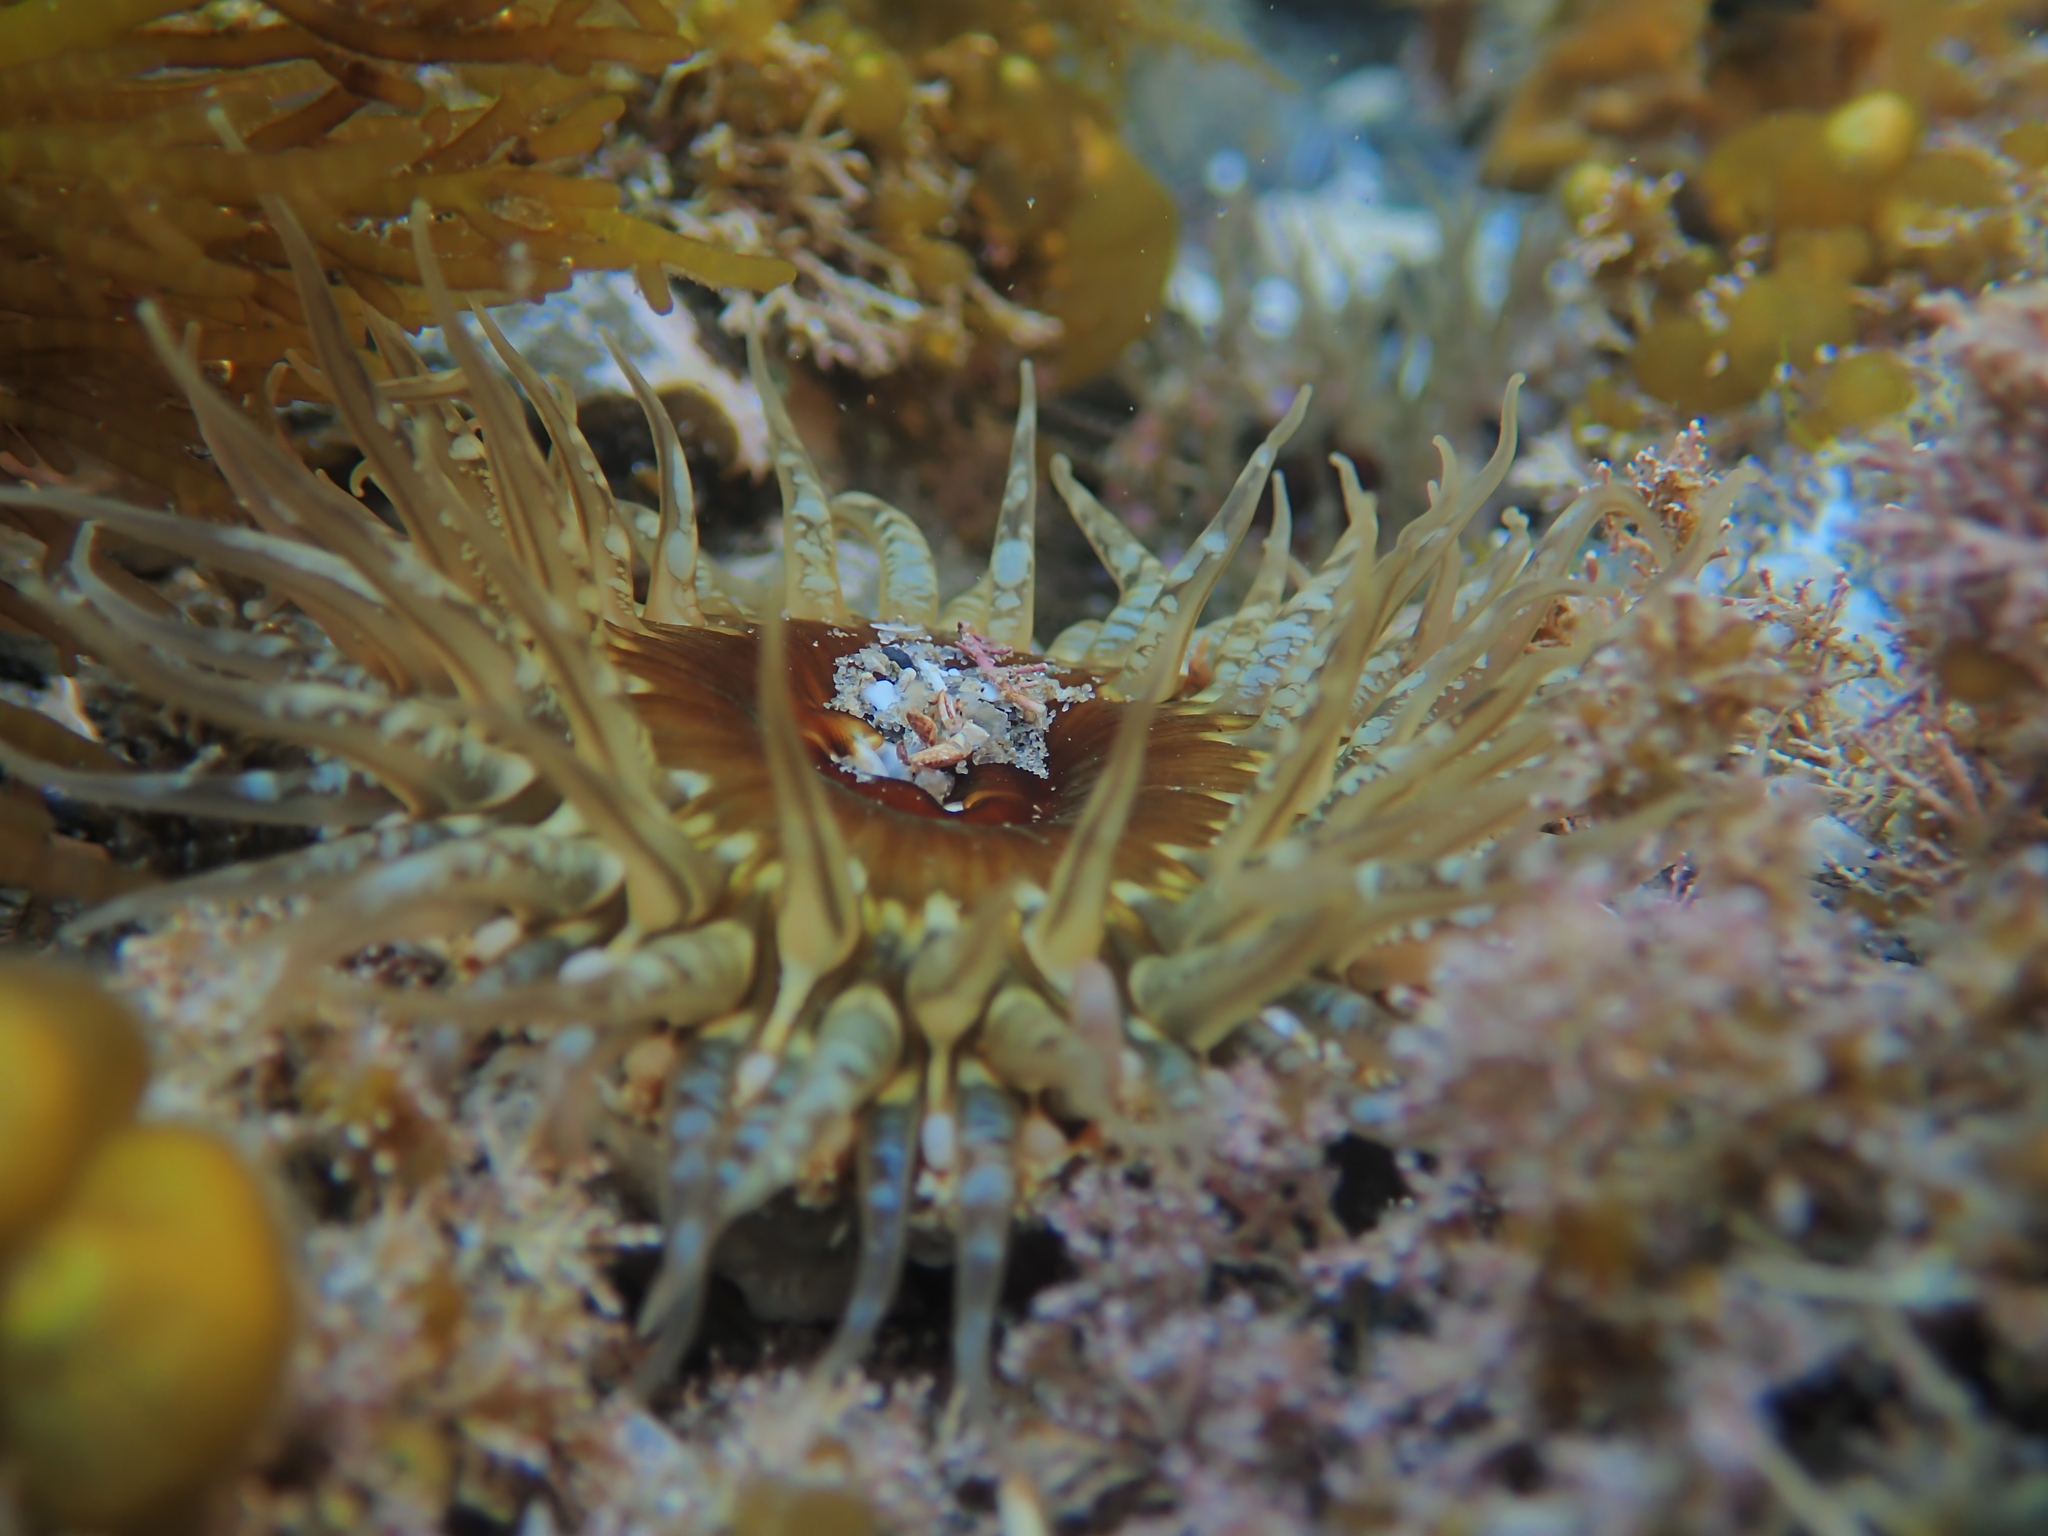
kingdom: Animalia
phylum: Cnidaria
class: Anthozoa
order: Actiniaria
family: Actiniidae
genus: Oulactis
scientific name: Oulactis muscosa
